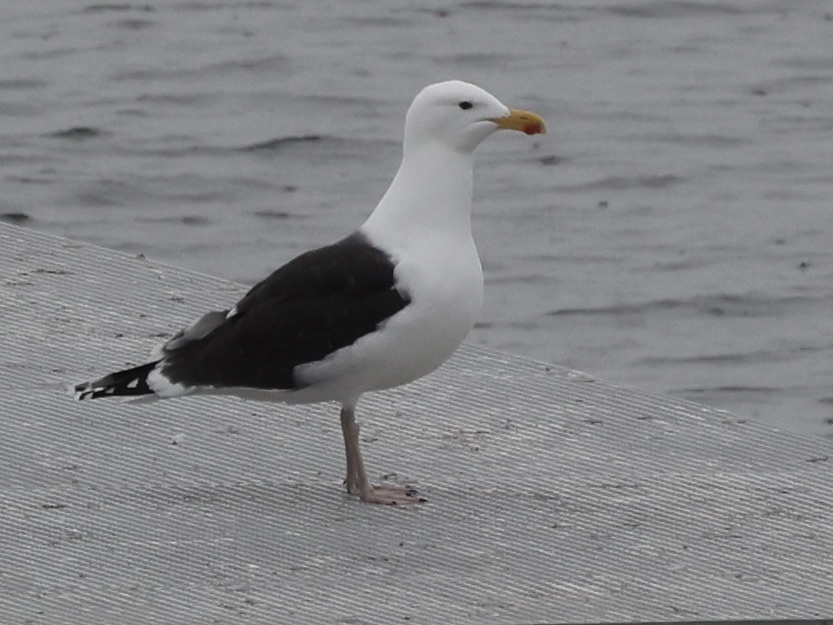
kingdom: Animalia
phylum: Chordata
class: Aves
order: Charadriiformes
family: Laridae
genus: Larus
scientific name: Larus marinus
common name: Great black-backed gull
